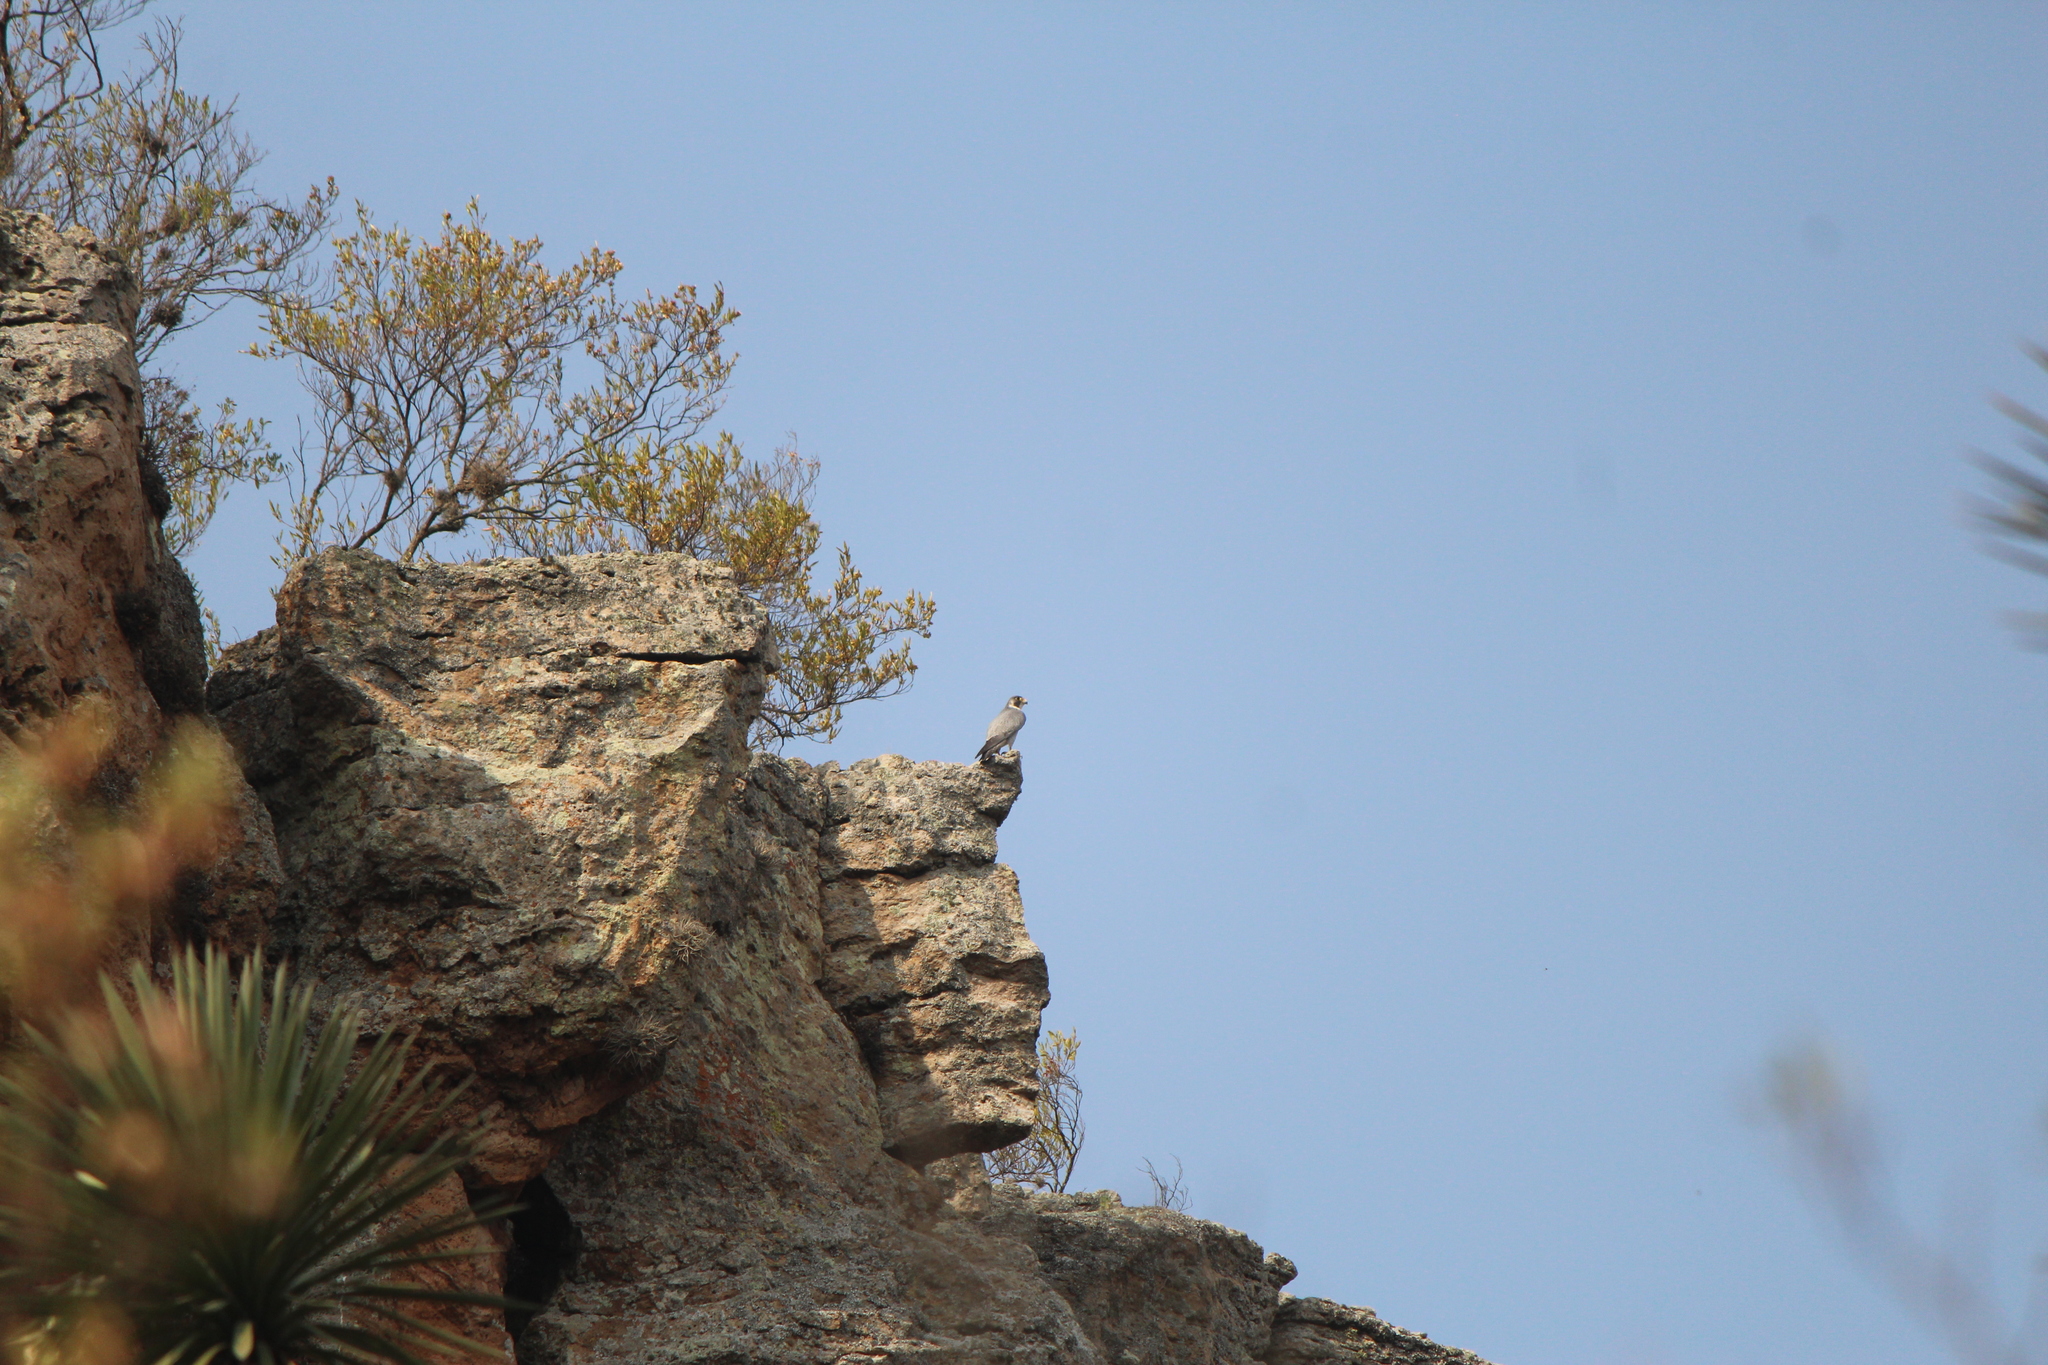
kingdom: Animalia
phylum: Chordata
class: Aves
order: Falconiformes
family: Falconidae
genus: Falco
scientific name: Falco peregrinus
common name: Peregrine falcon
